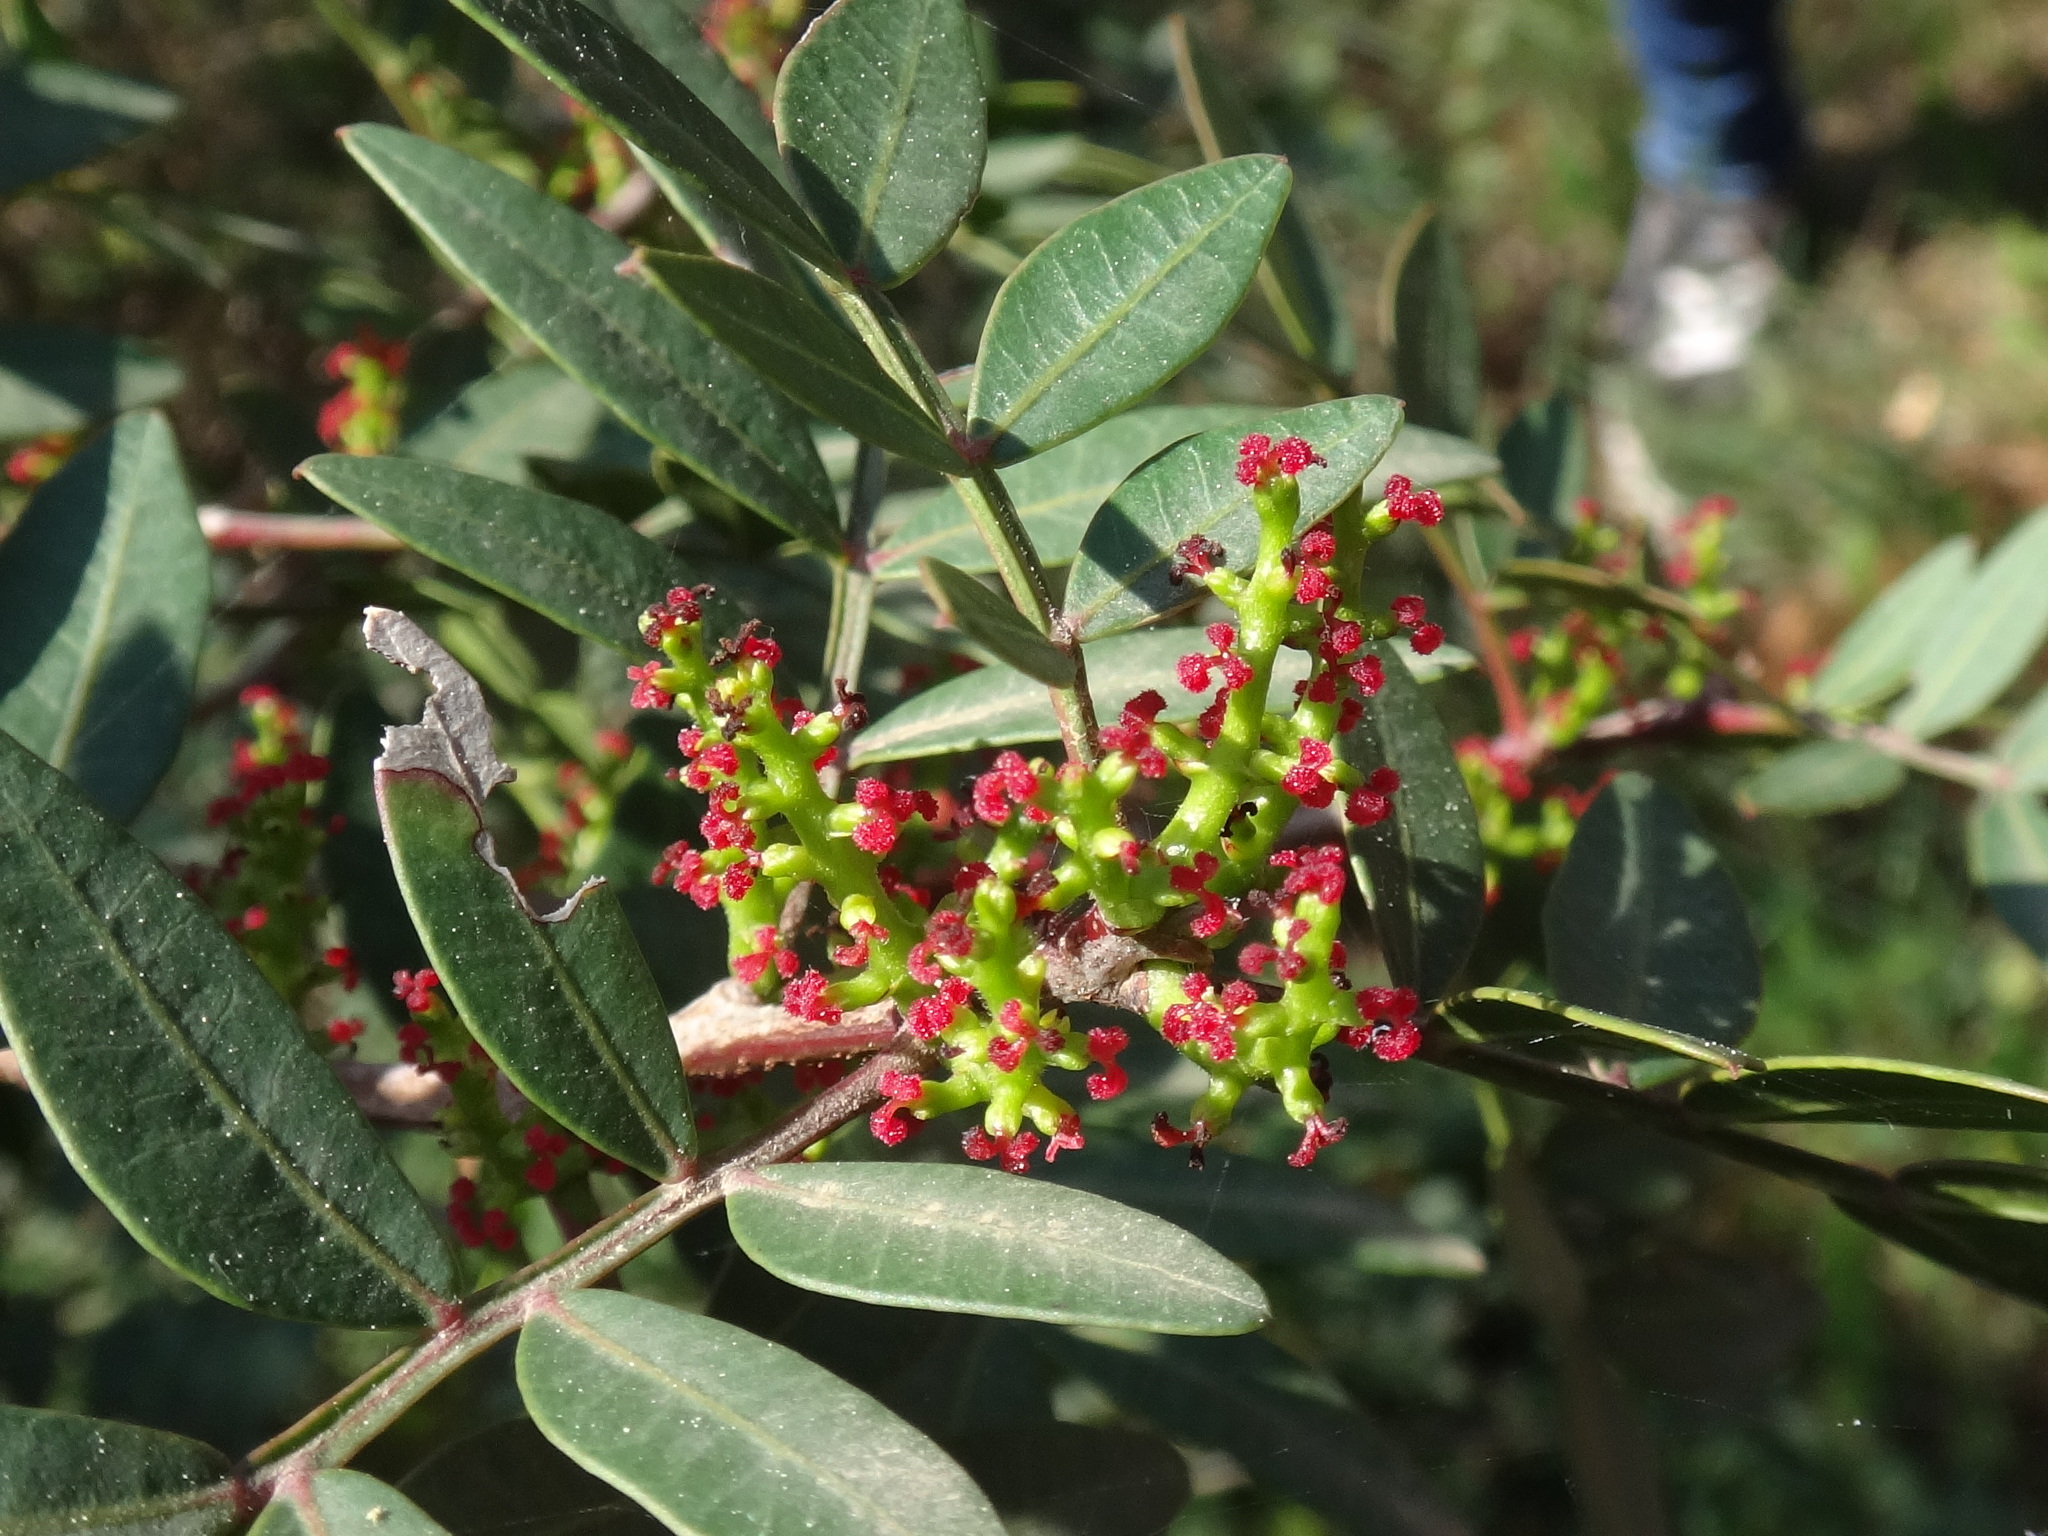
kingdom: Plantae
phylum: Tracheophyta
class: Magnoliopsida
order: Sapindales
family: Anacardiaceae
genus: Pistacia
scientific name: Pistacia lentiscus
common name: Lentisk
